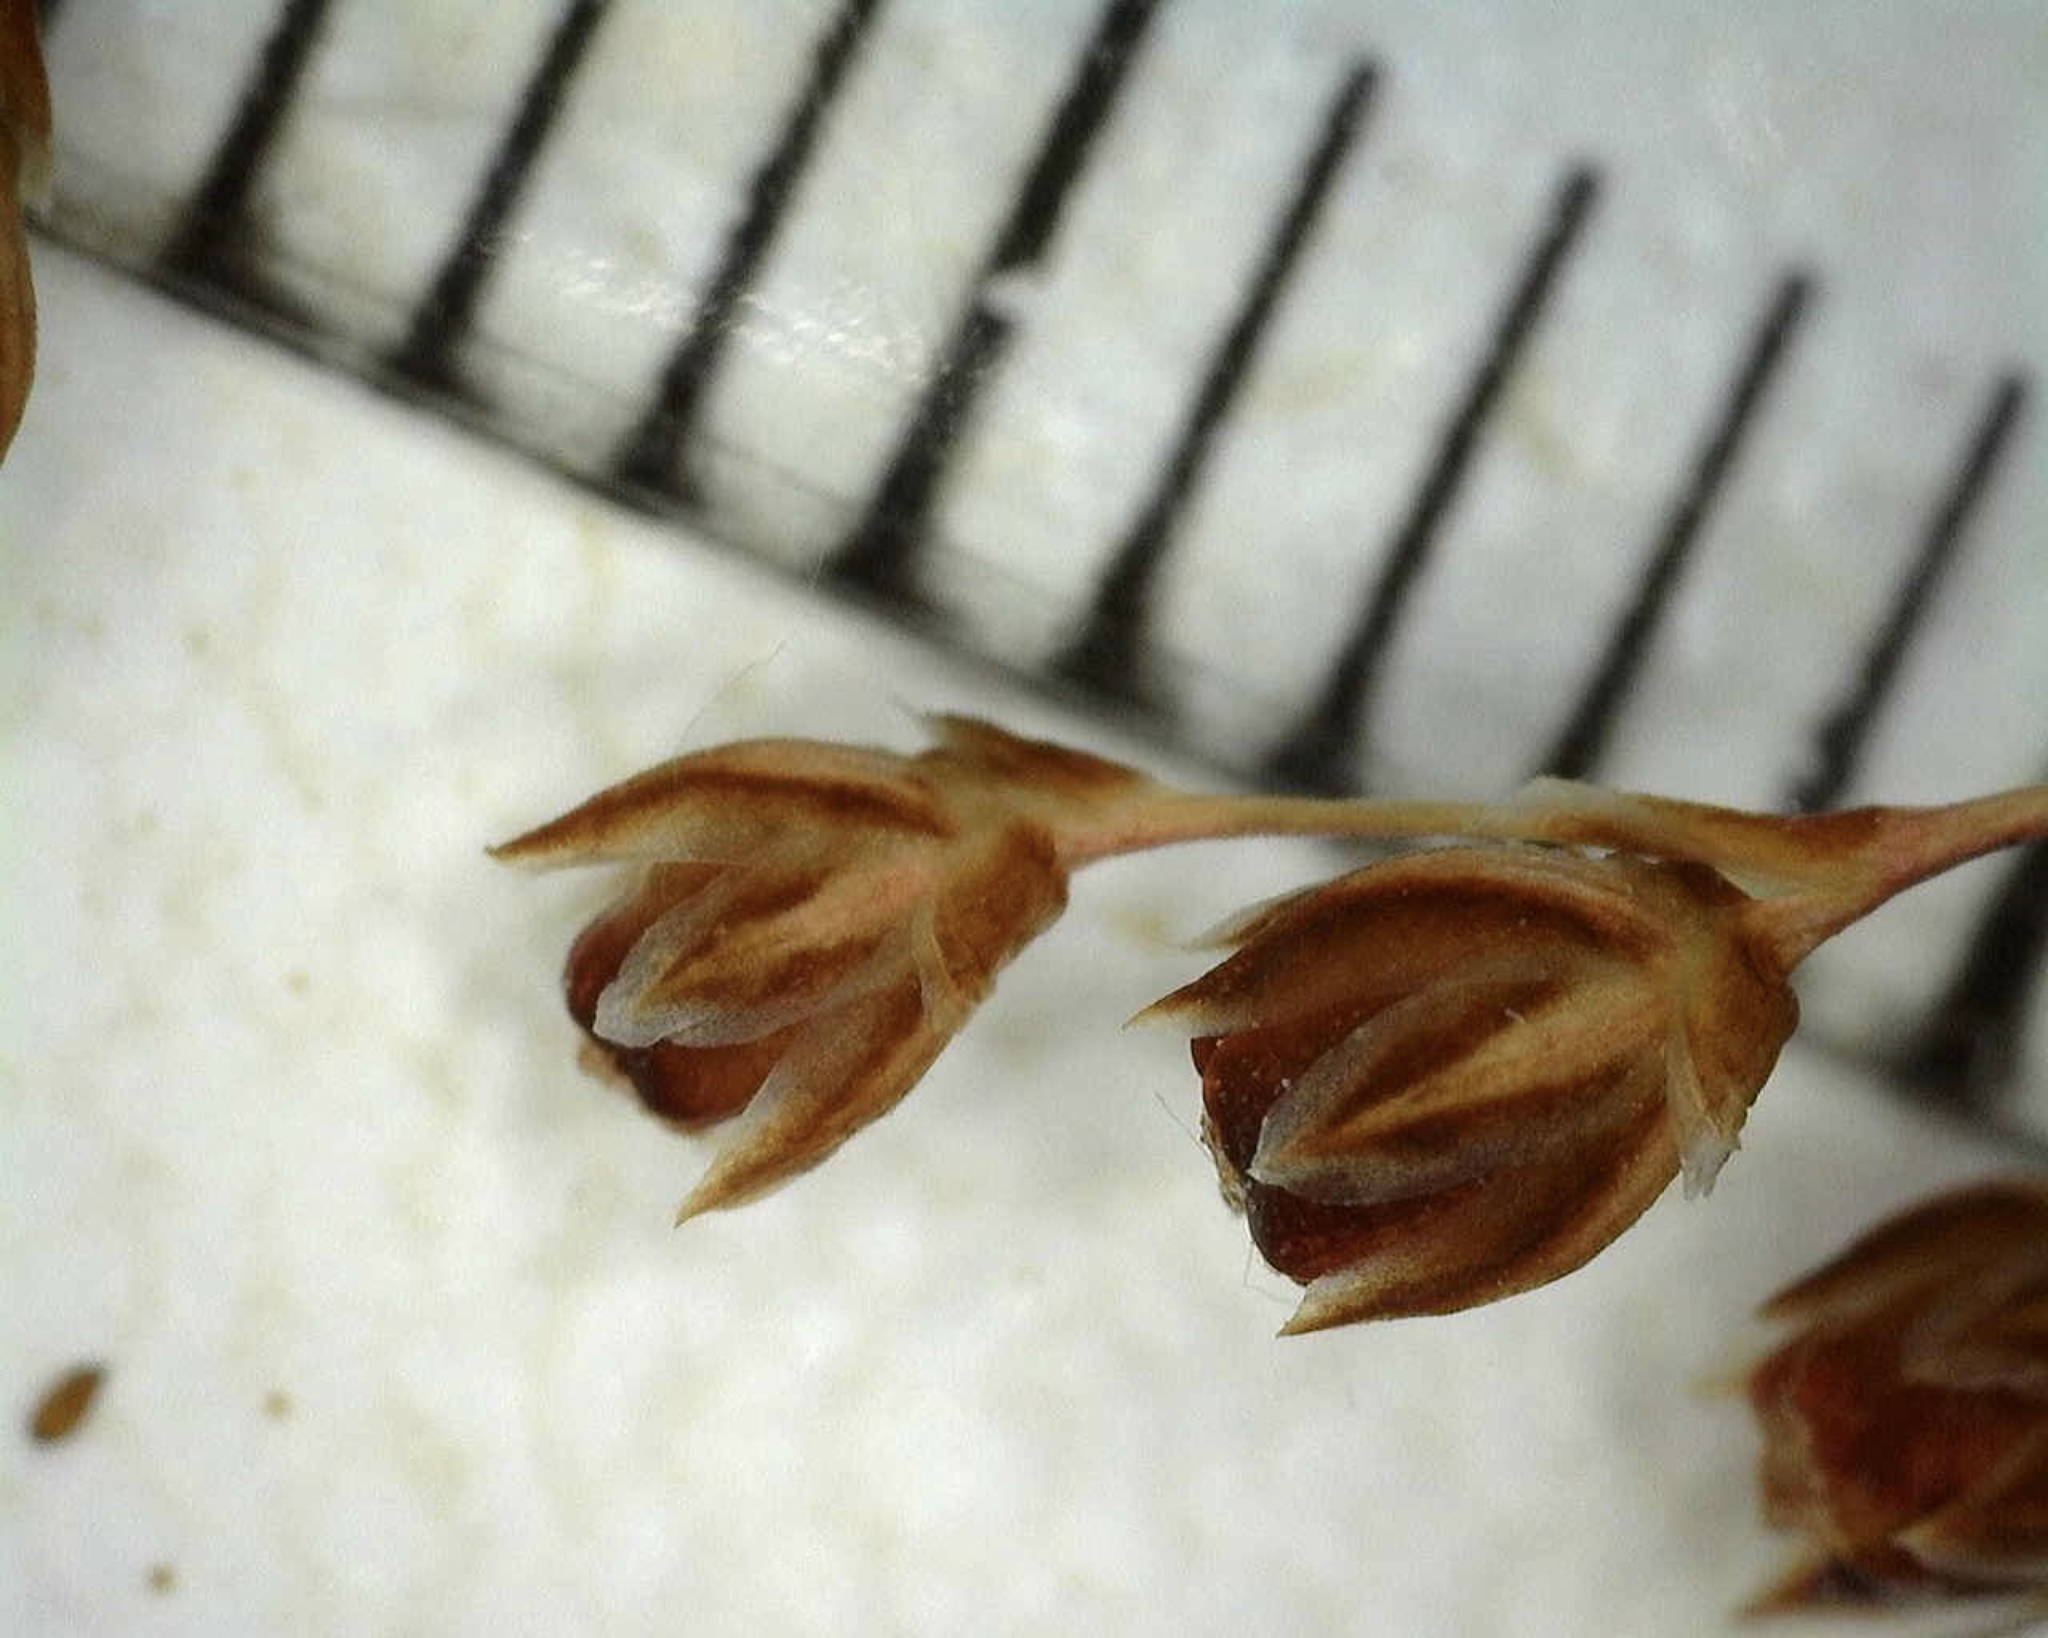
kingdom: Plantae
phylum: Tracheophyta
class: Liliopsida
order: Poales
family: Juncaceae
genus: Juncus
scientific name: Juncus tenageia
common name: Sand rush
